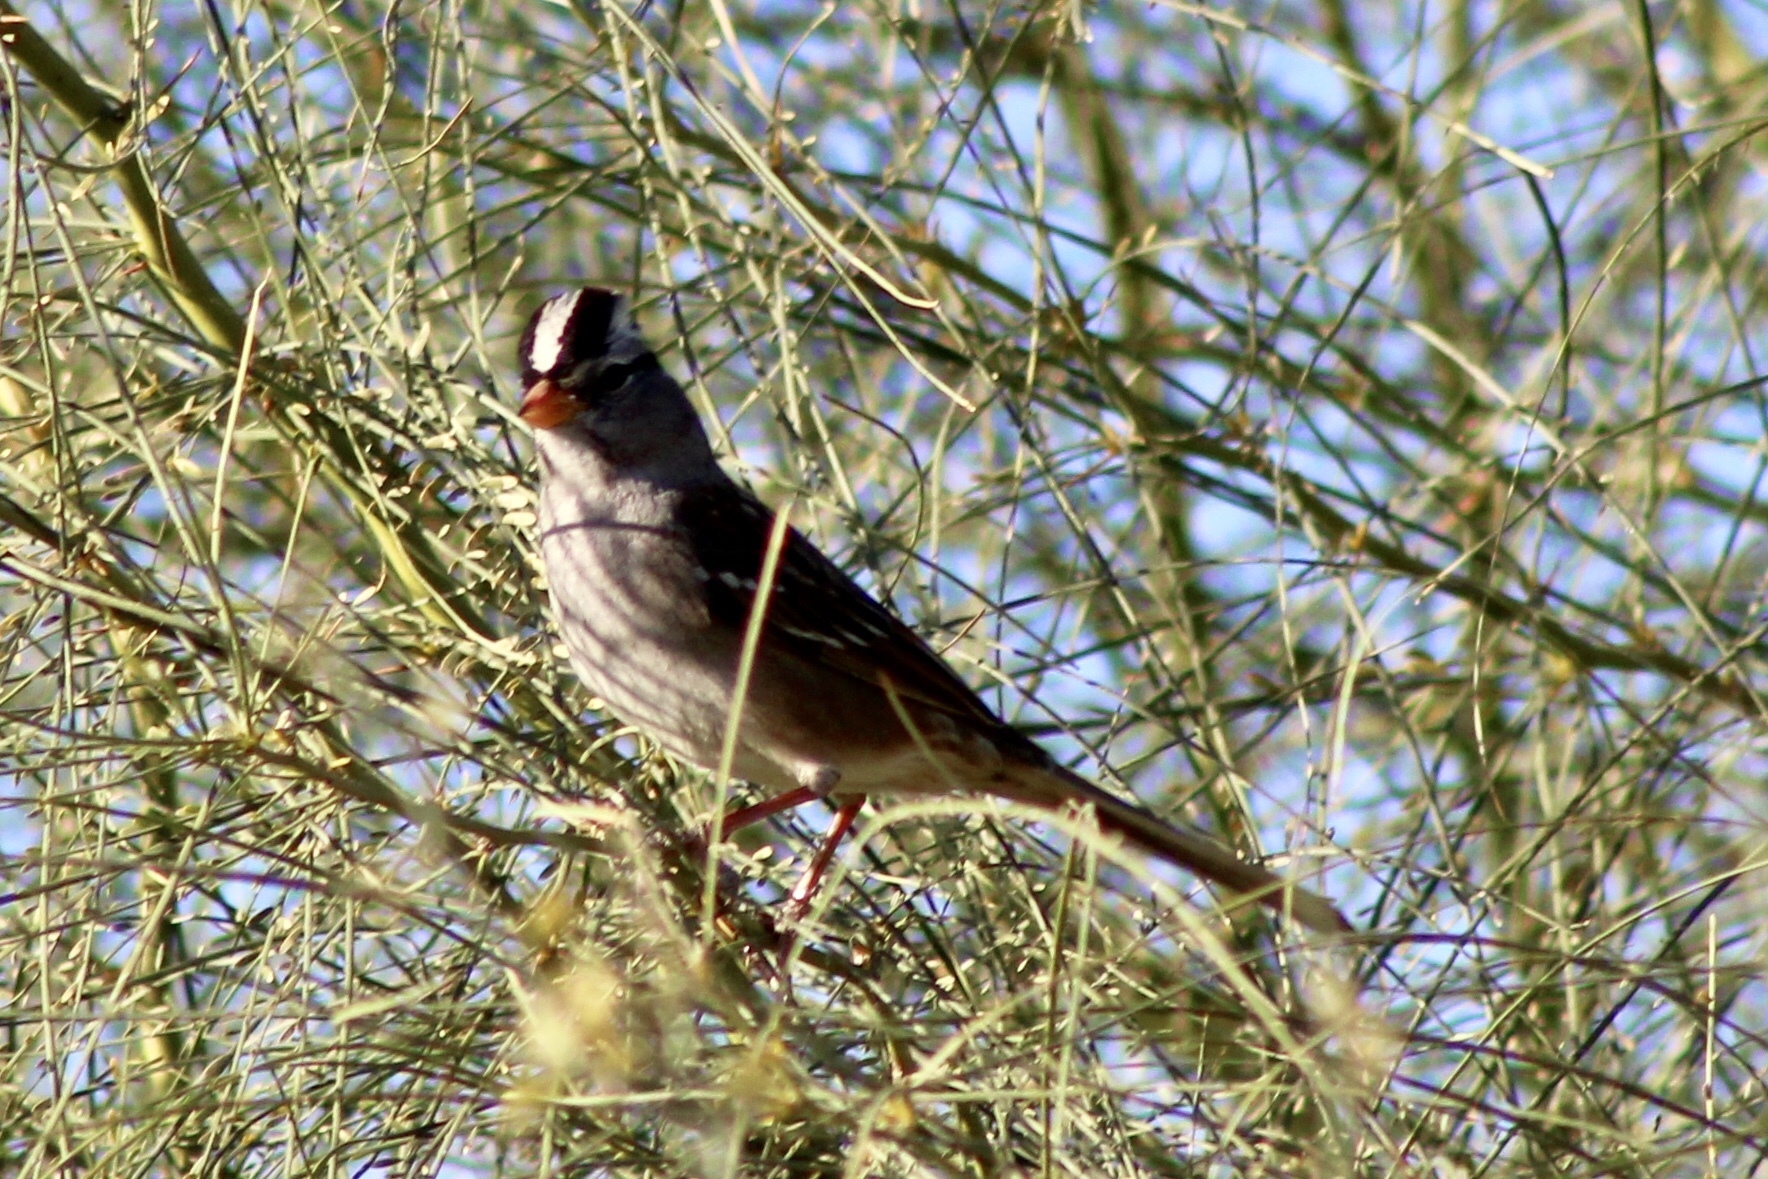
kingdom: Animalia
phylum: Chordata
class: Aves
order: Passeriformes
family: Passerellidae
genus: Zonotrichia
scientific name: Zonotrichia leucophrys
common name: White-crowned sparrow
